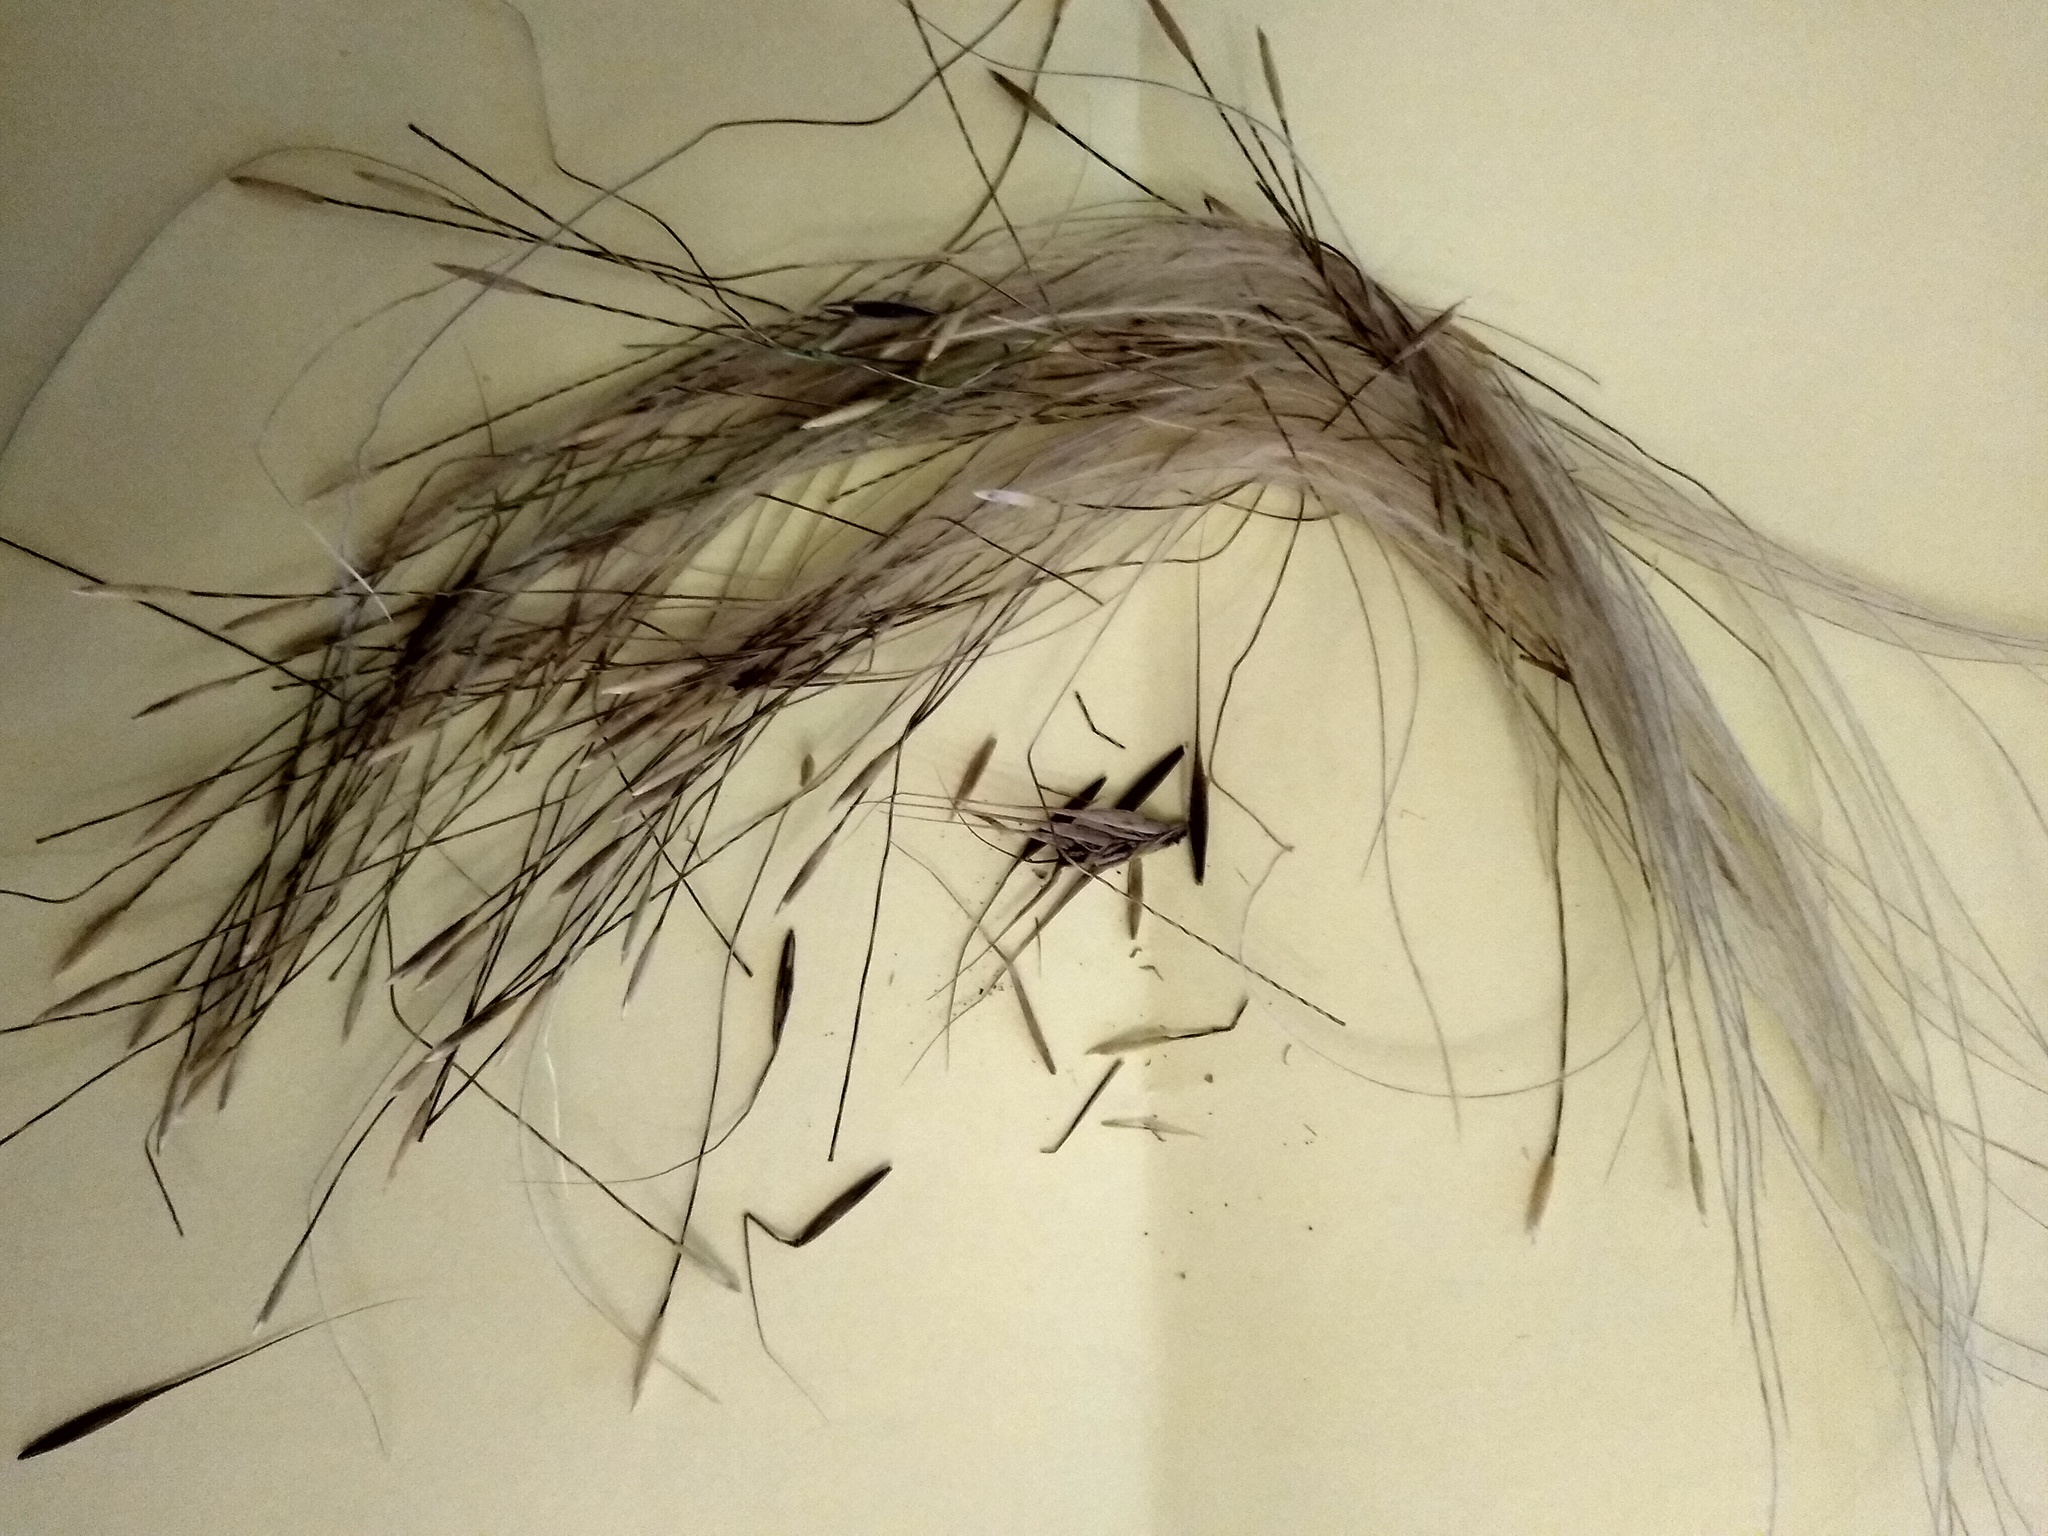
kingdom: Plantae
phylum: Tracheophyta
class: Liliopsida
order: Poales
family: Poaceae
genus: Stipa
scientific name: Stipa lessingiana
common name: Needle grass
